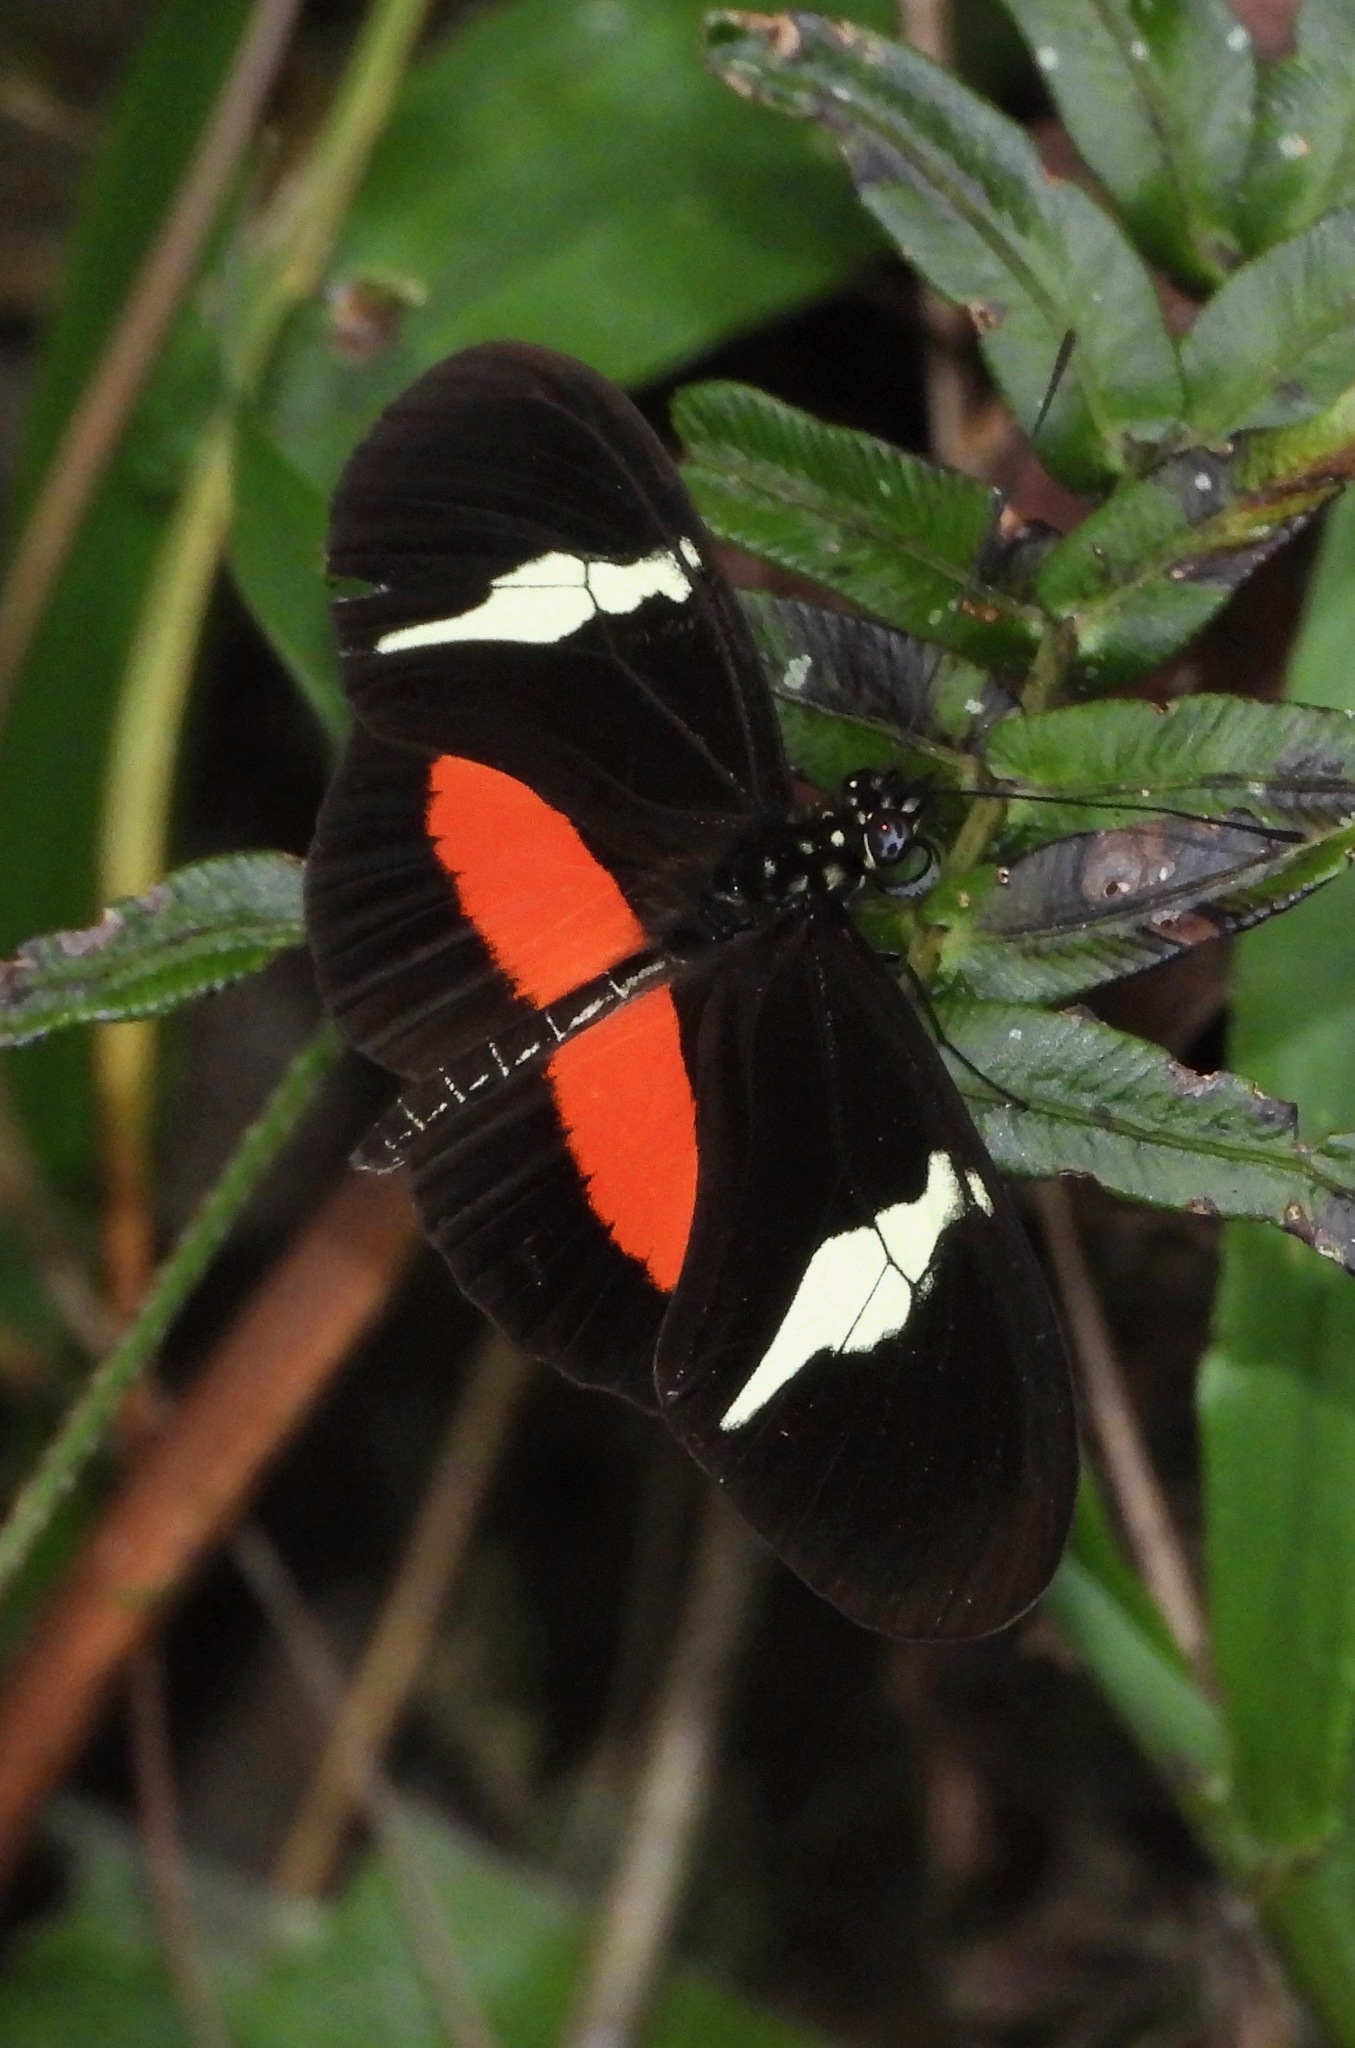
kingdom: Animalia
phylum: Arthropoda
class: Insecta
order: Lepidoptera
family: Nymphalidae
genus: Heliconius
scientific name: Heliconius clysonymus
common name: Clysonymus longwing
